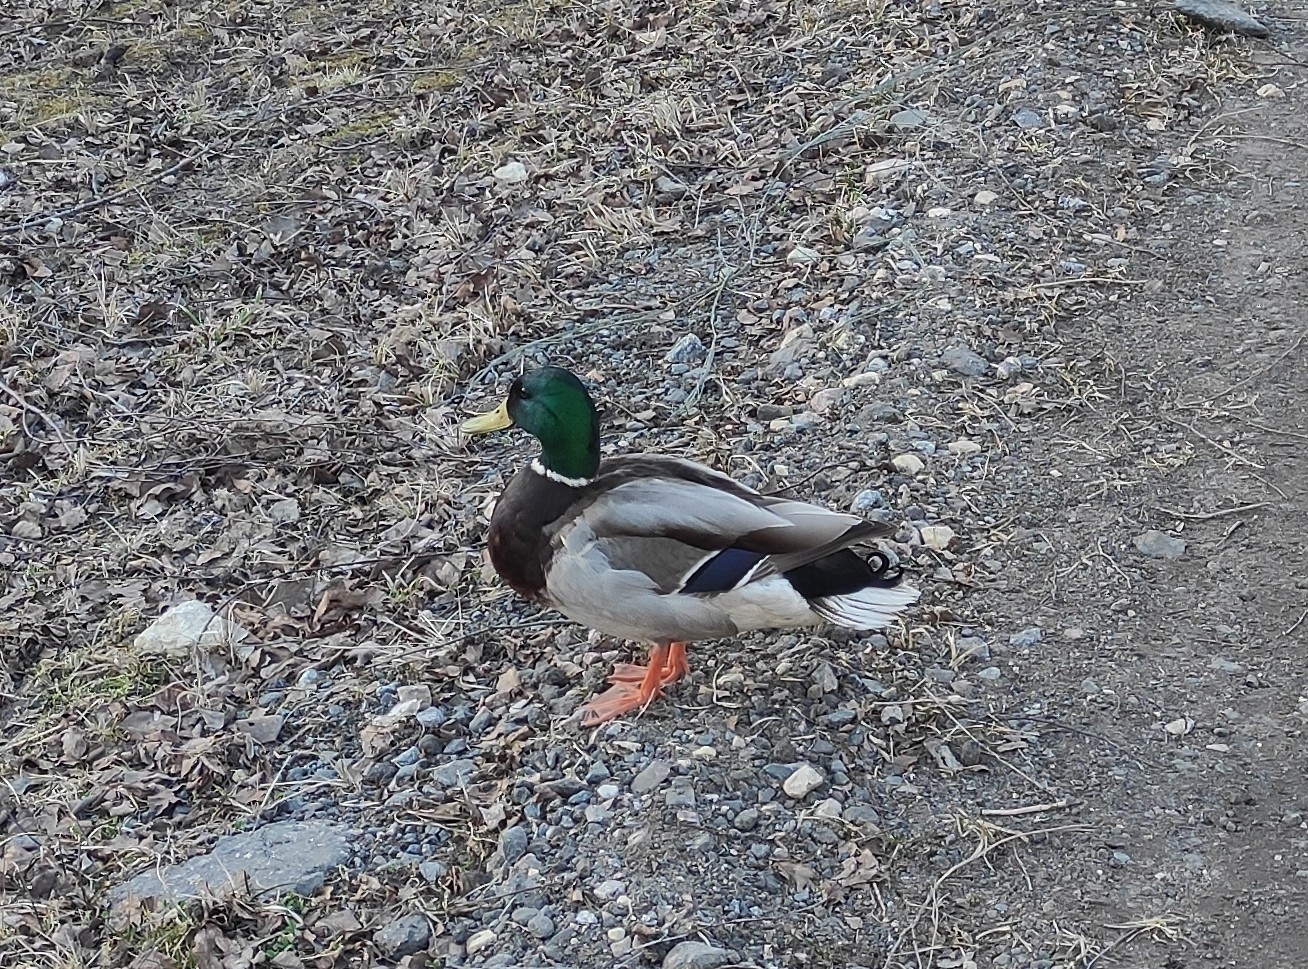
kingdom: Animalia
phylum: Chordata
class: Aves
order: Anseriformes
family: Anatidae
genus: Anas
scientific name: Anas platyrhynchos
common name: Mallard
